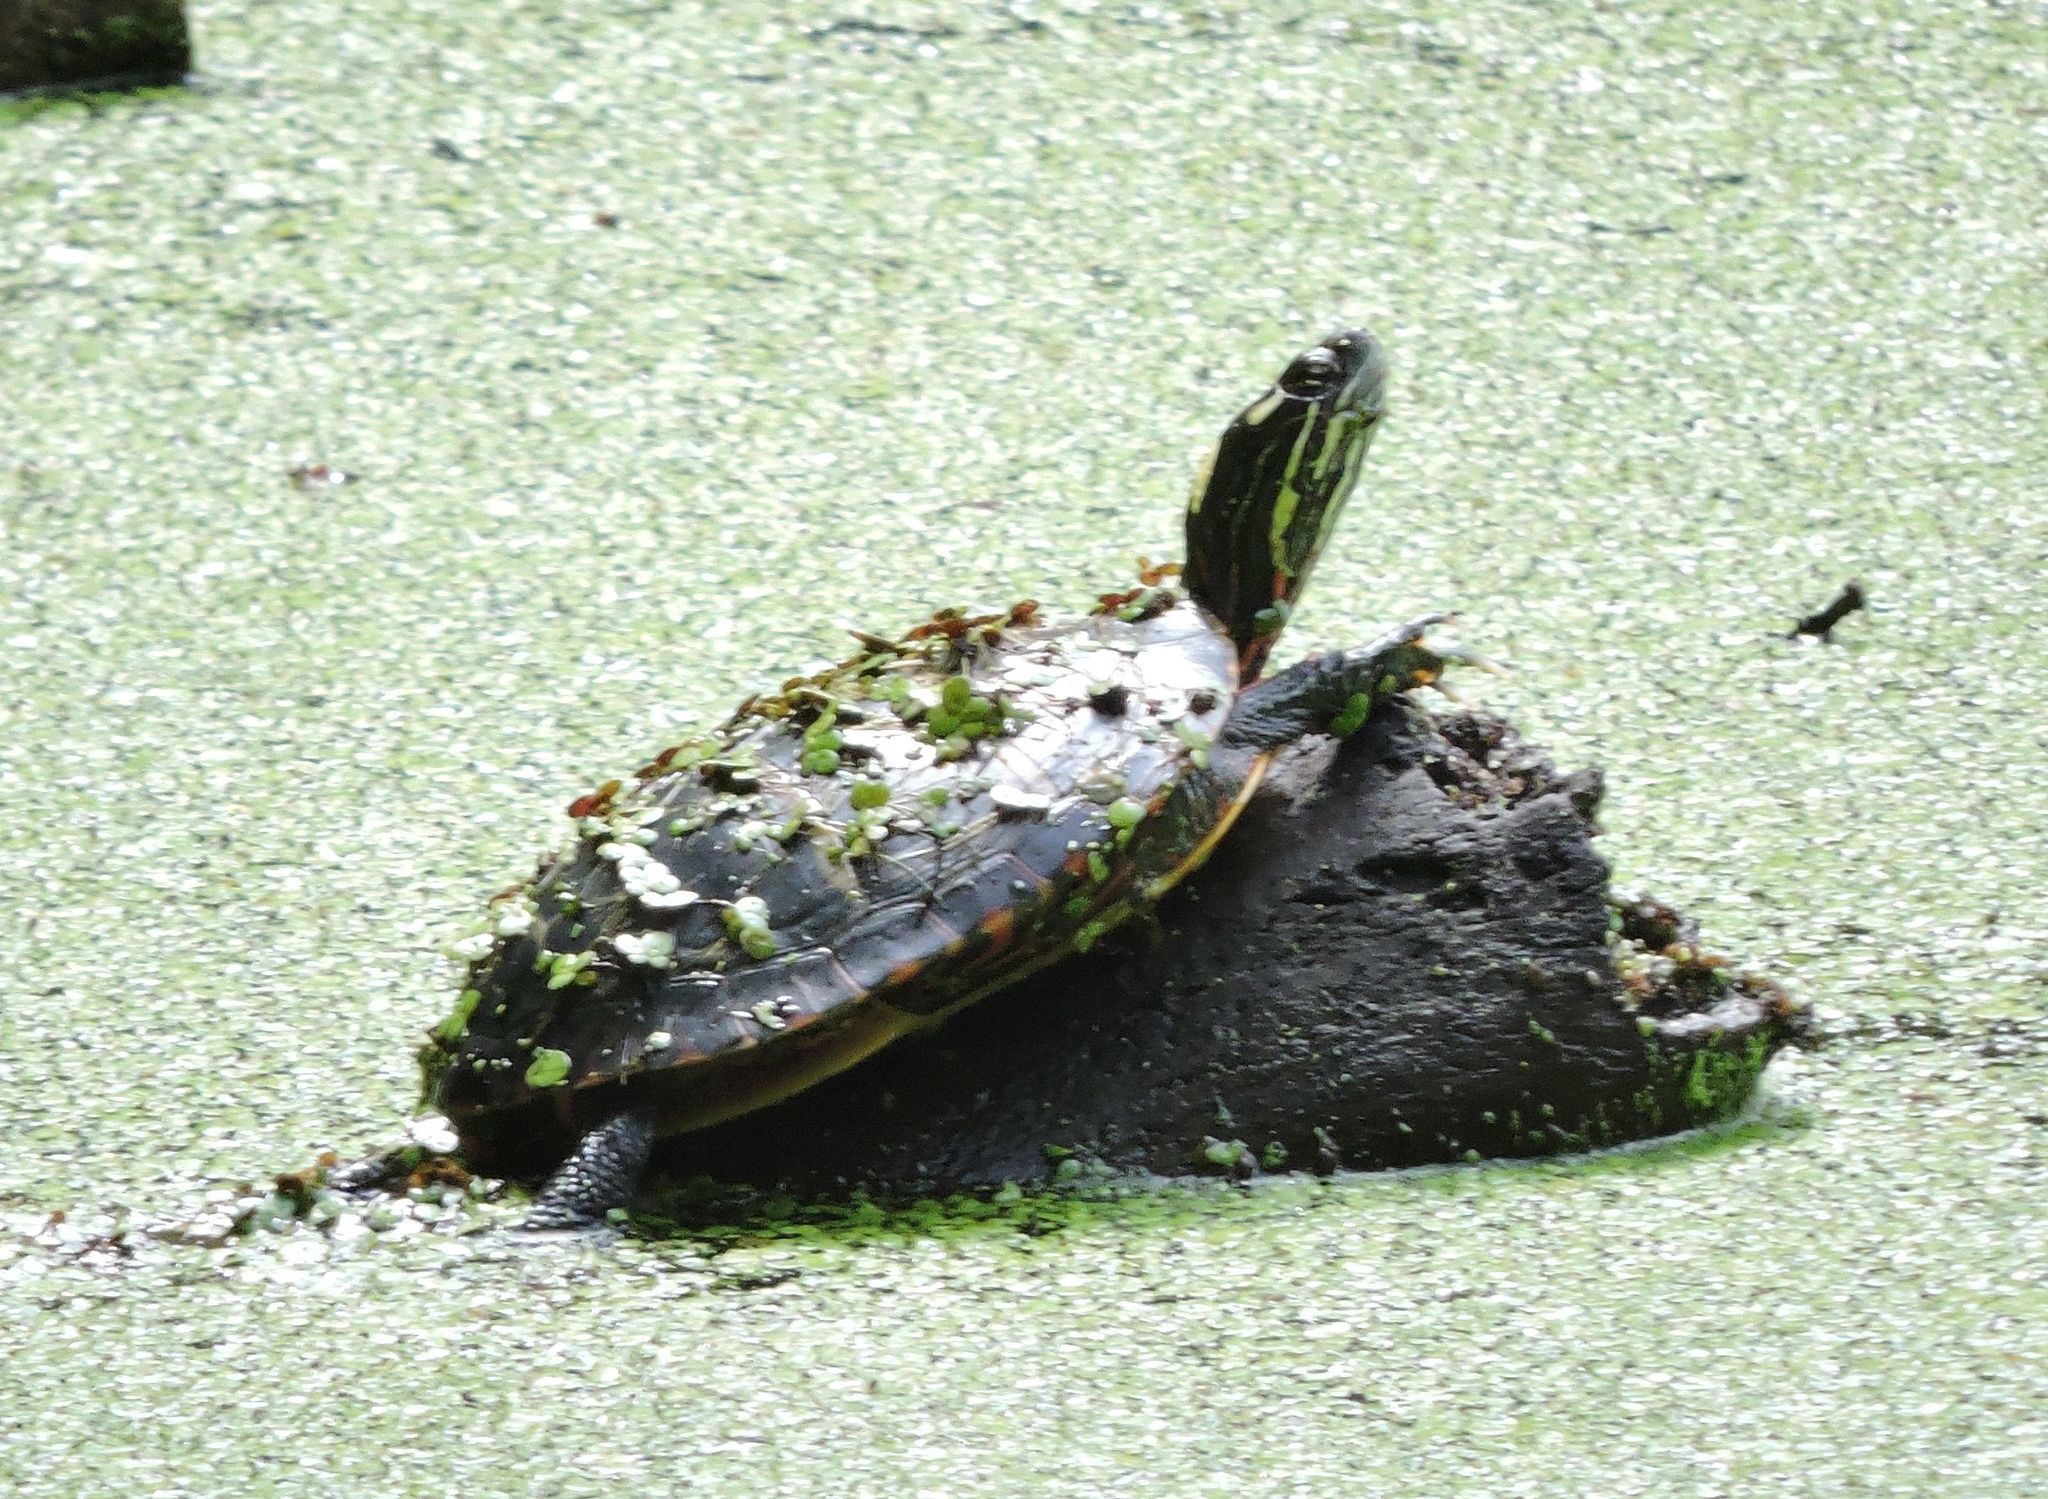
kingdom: Animalia
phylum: Chordata
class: Testudines
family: Emydidae
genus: Chrysemys
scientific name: Chrysemys picta
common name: Painted turtle
